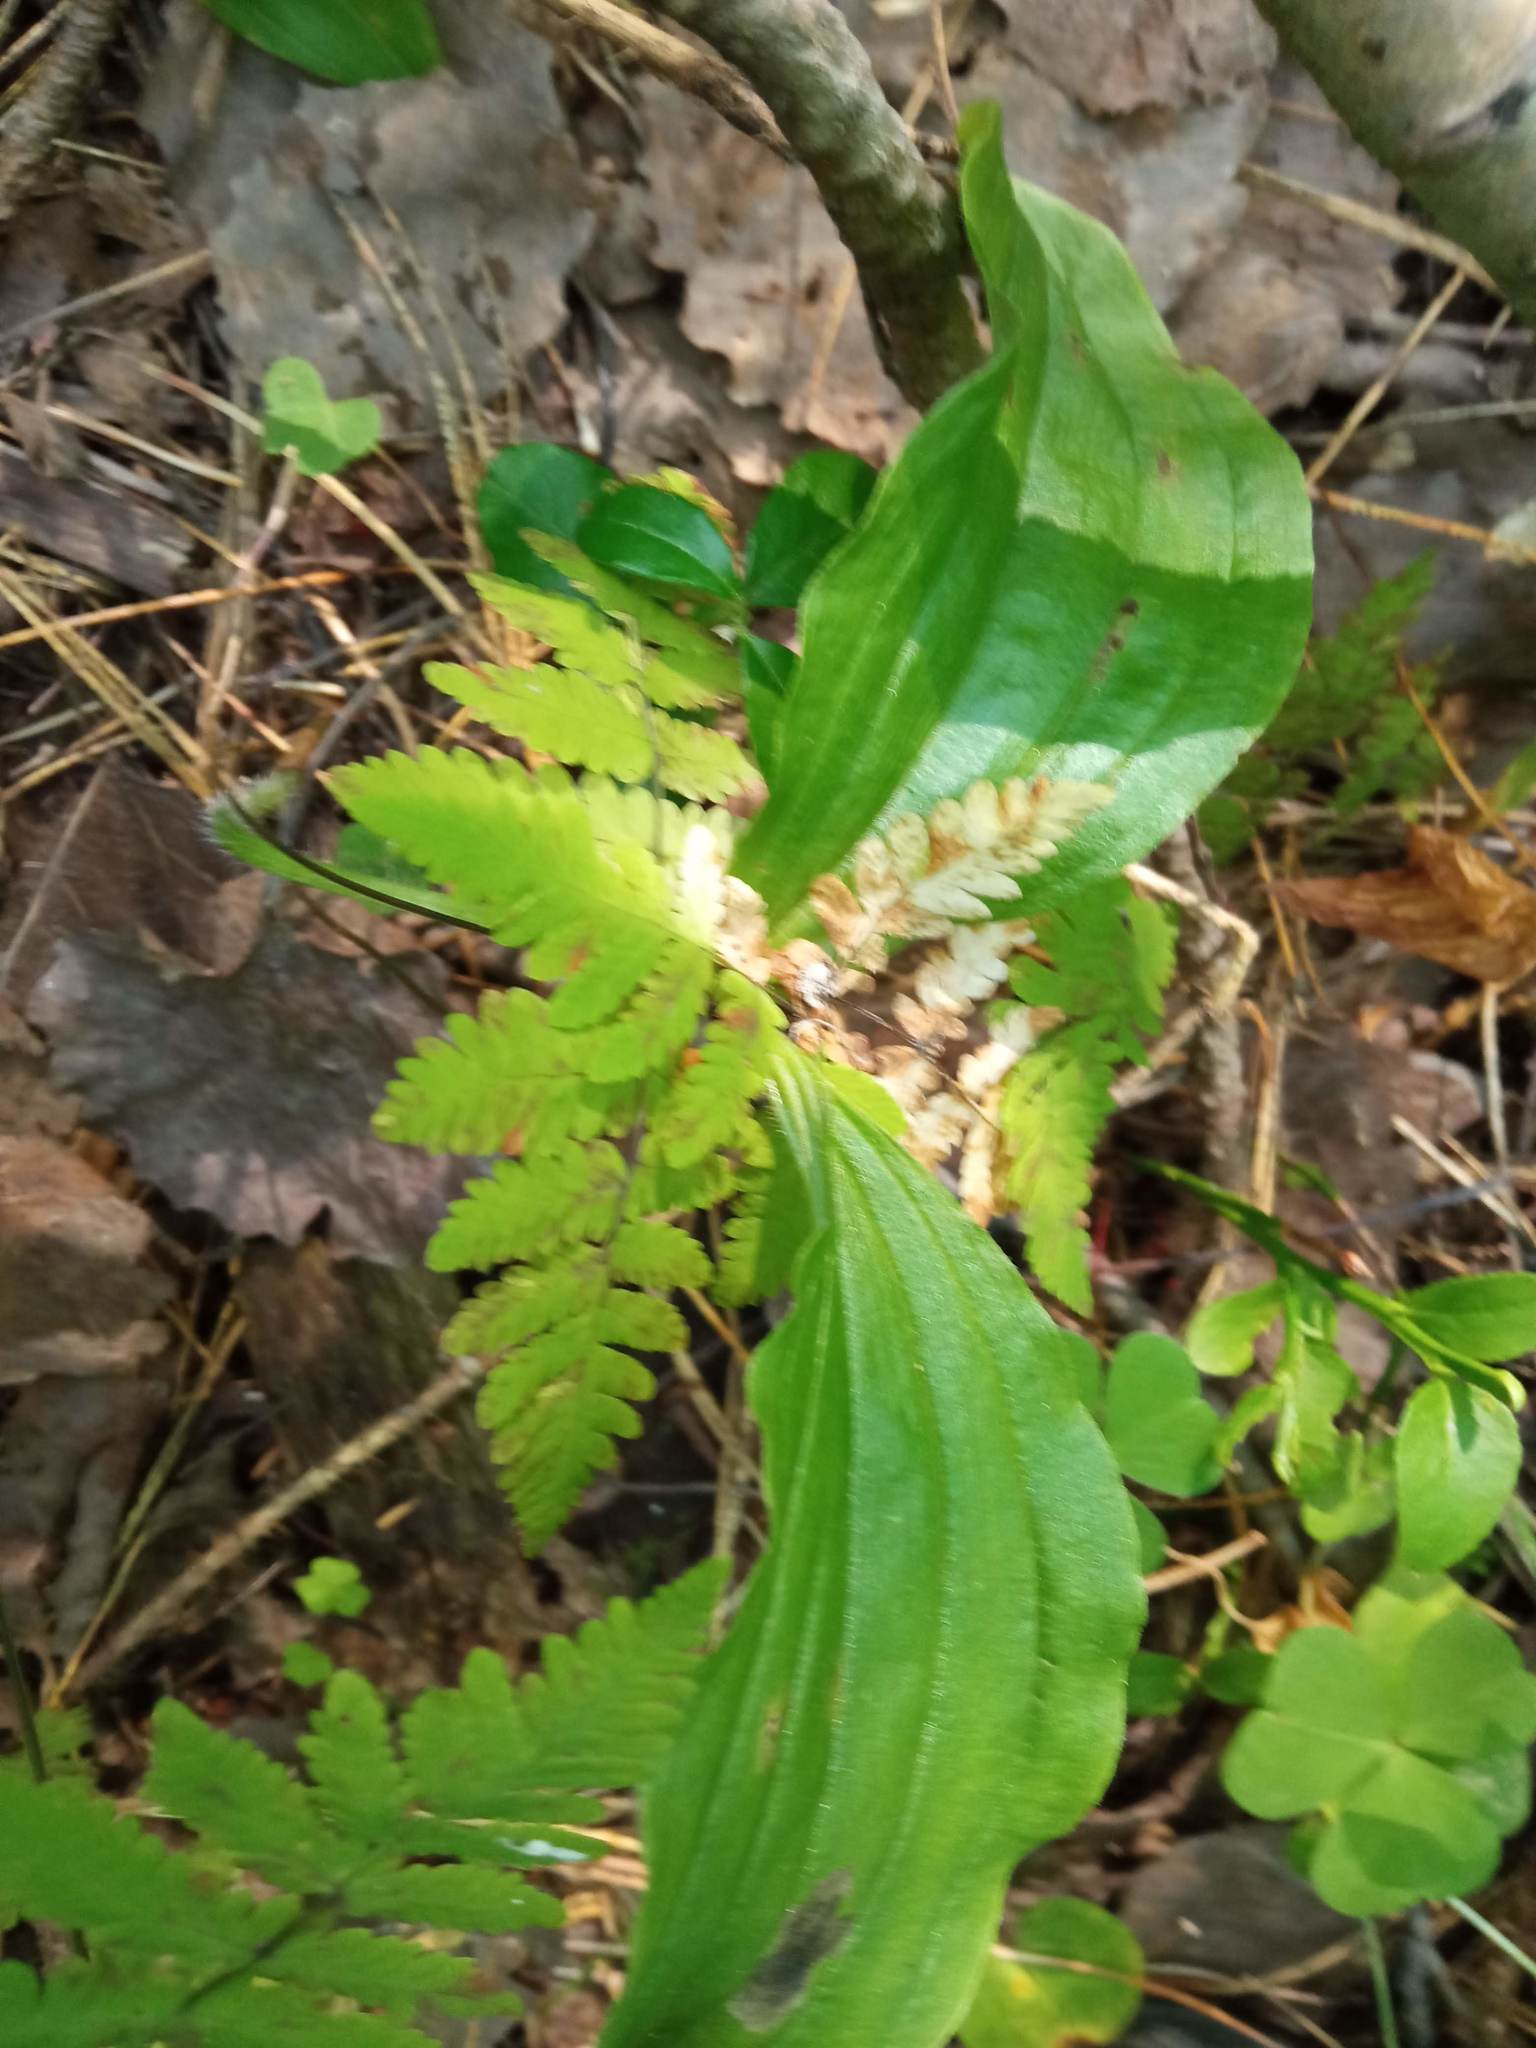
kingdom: Plantae
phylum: Tracheophyta
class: Liliopsida
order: Asparagales
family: Orchidaceae
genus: Cypripedium
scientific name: Cypripedium guttatum
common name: Pink lady slipper
